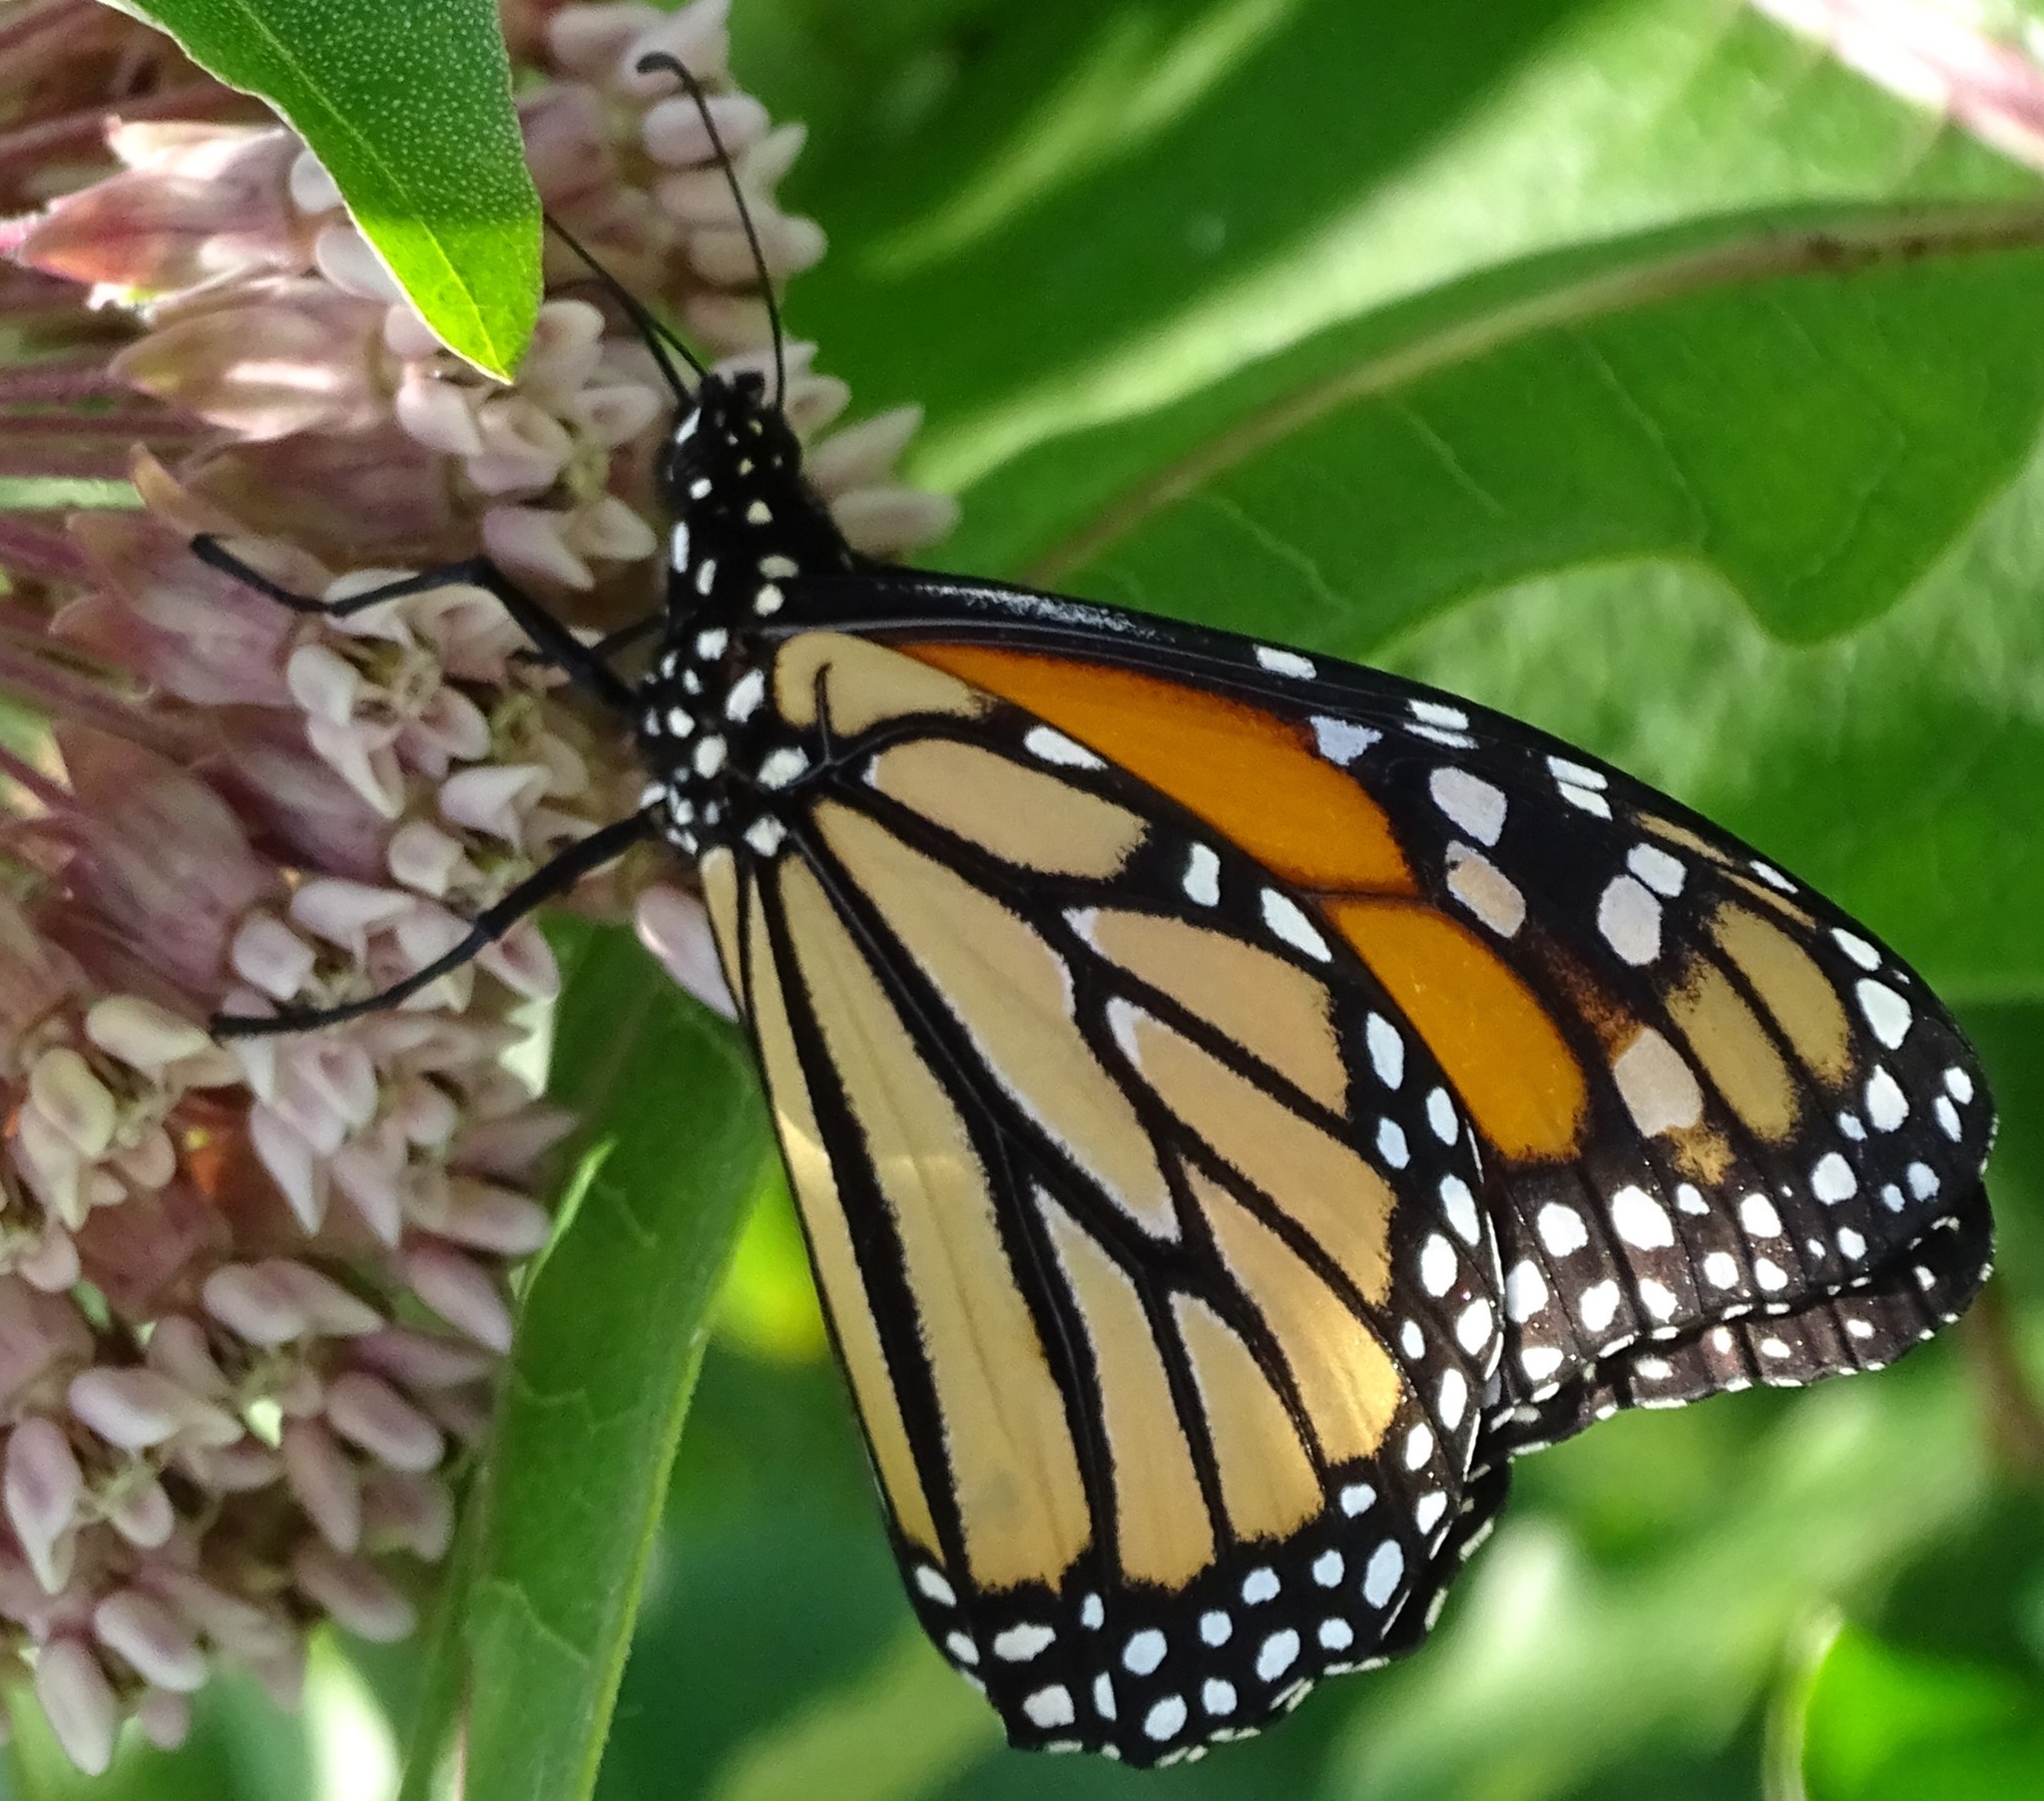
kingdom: Animalia
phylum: Arthropoda
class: Insecta
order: Lepidoptera
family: Nymphalidae
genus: Danaus
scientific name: Danaus plexippus
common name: Monarch
